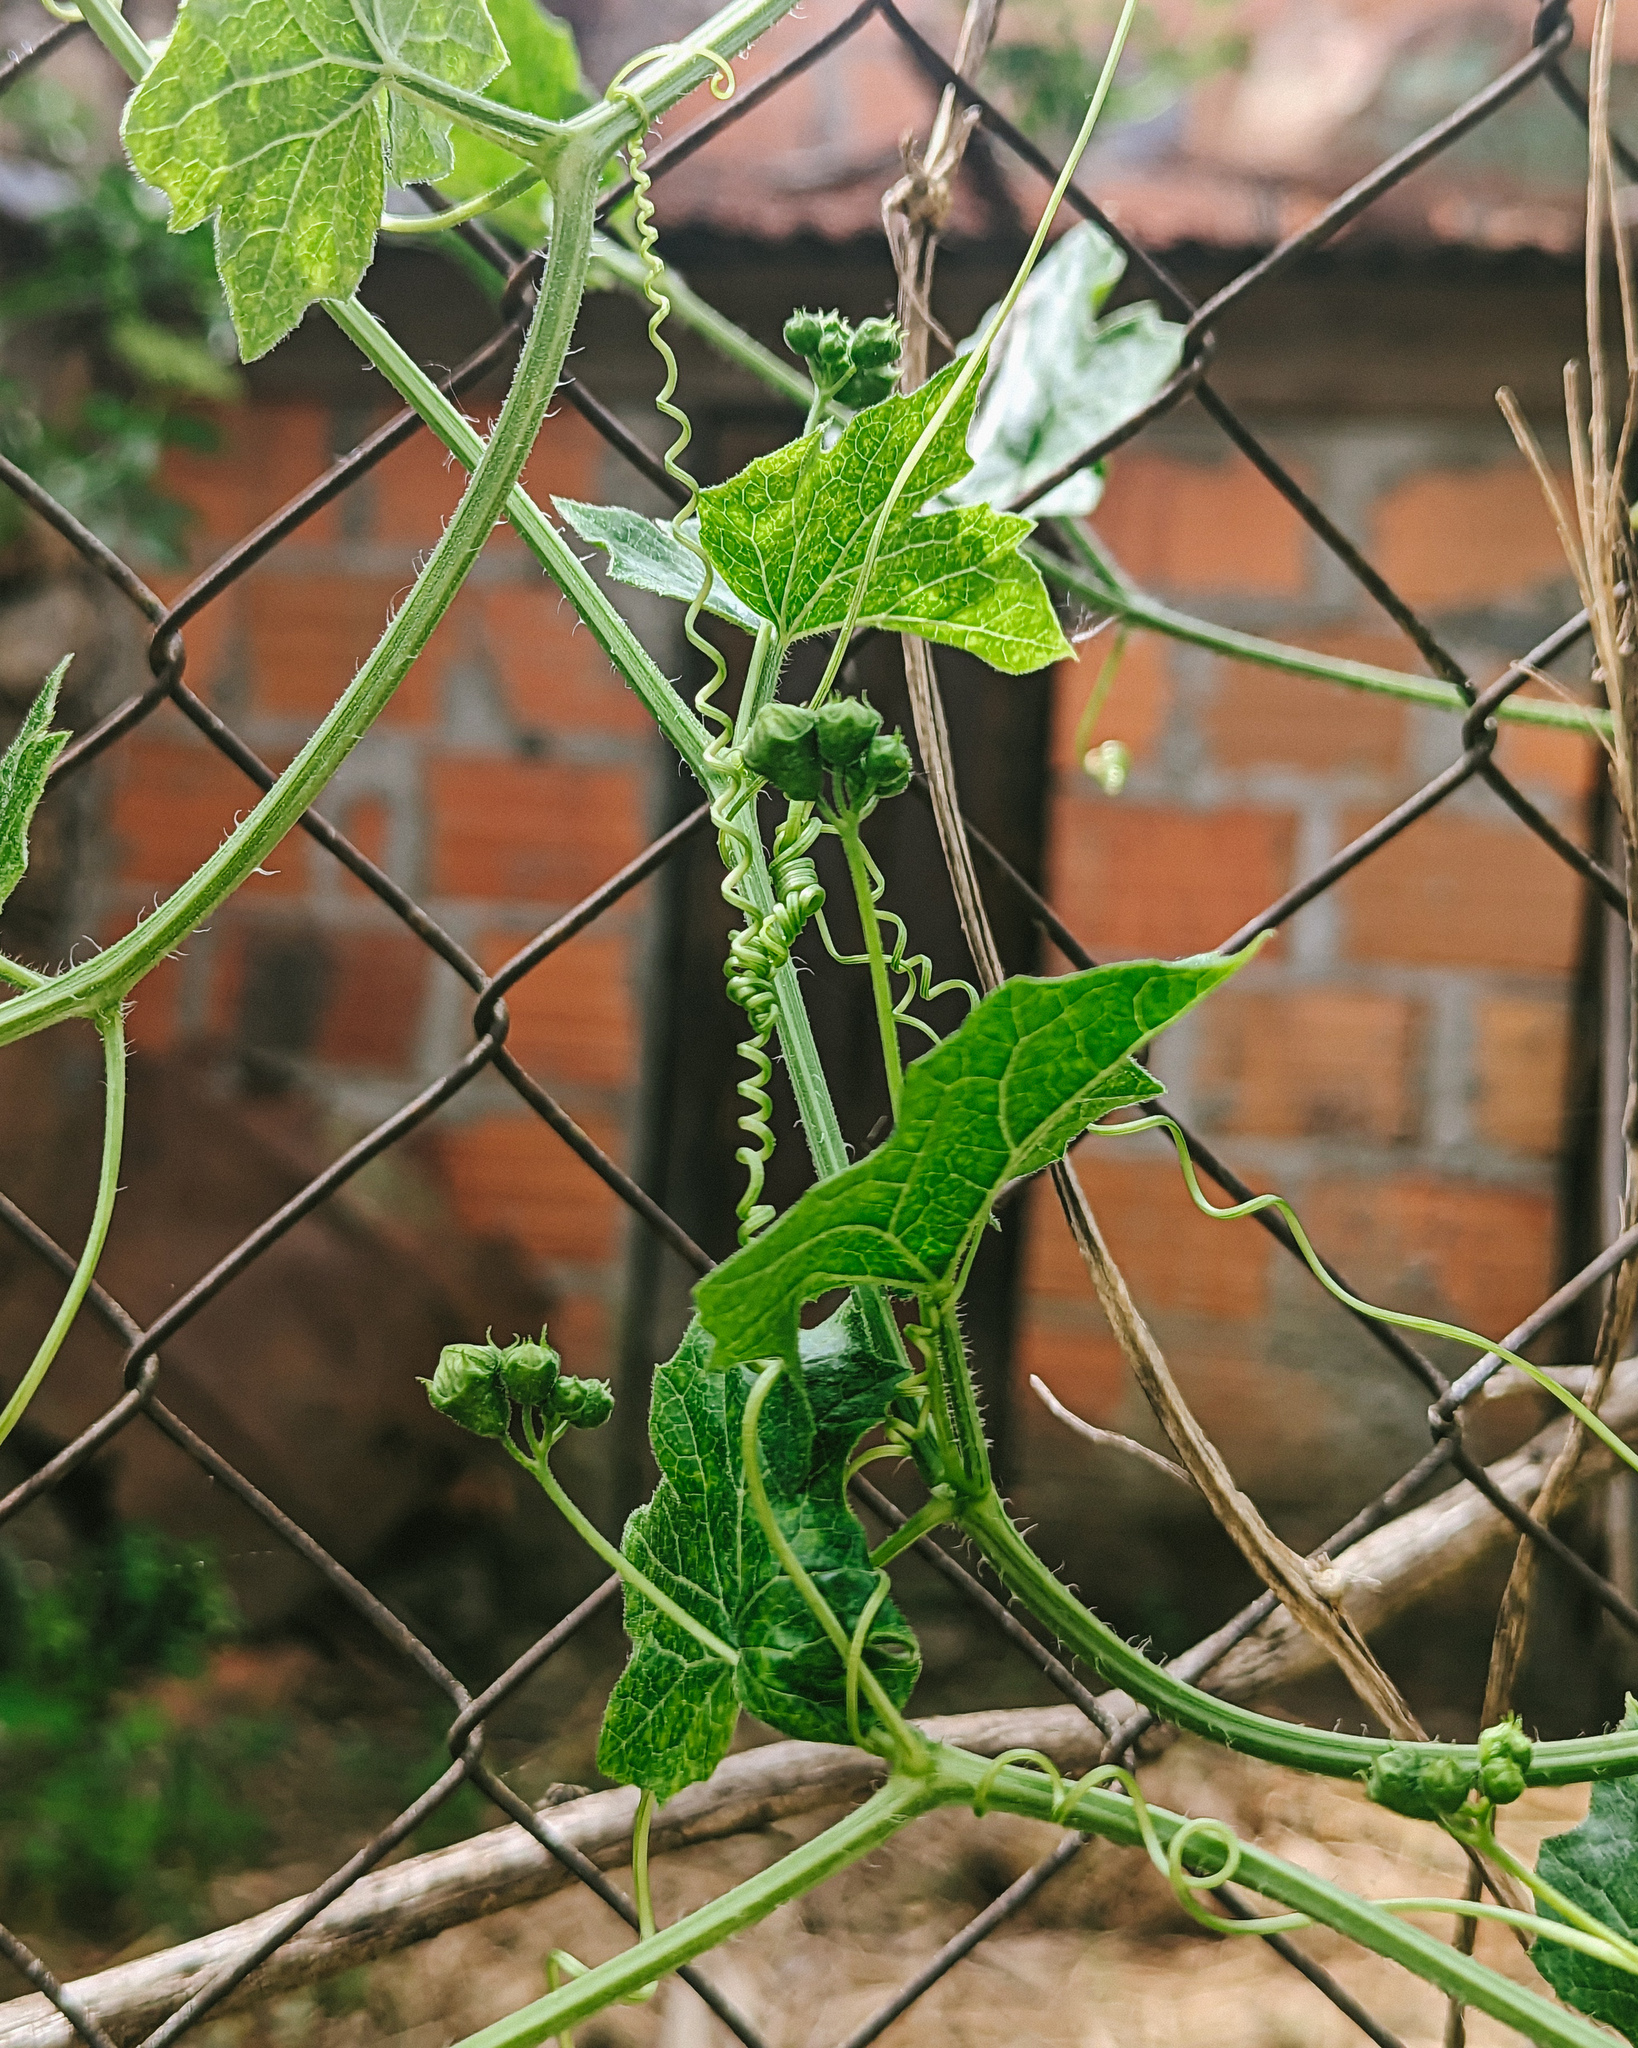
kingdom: Plantae
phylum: Tracheophyta
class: Magnoliopsida
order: Cucurbitales
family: Cucurbitaceae
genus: Bryonia
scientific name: Bryonia dioica
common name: White bryony
